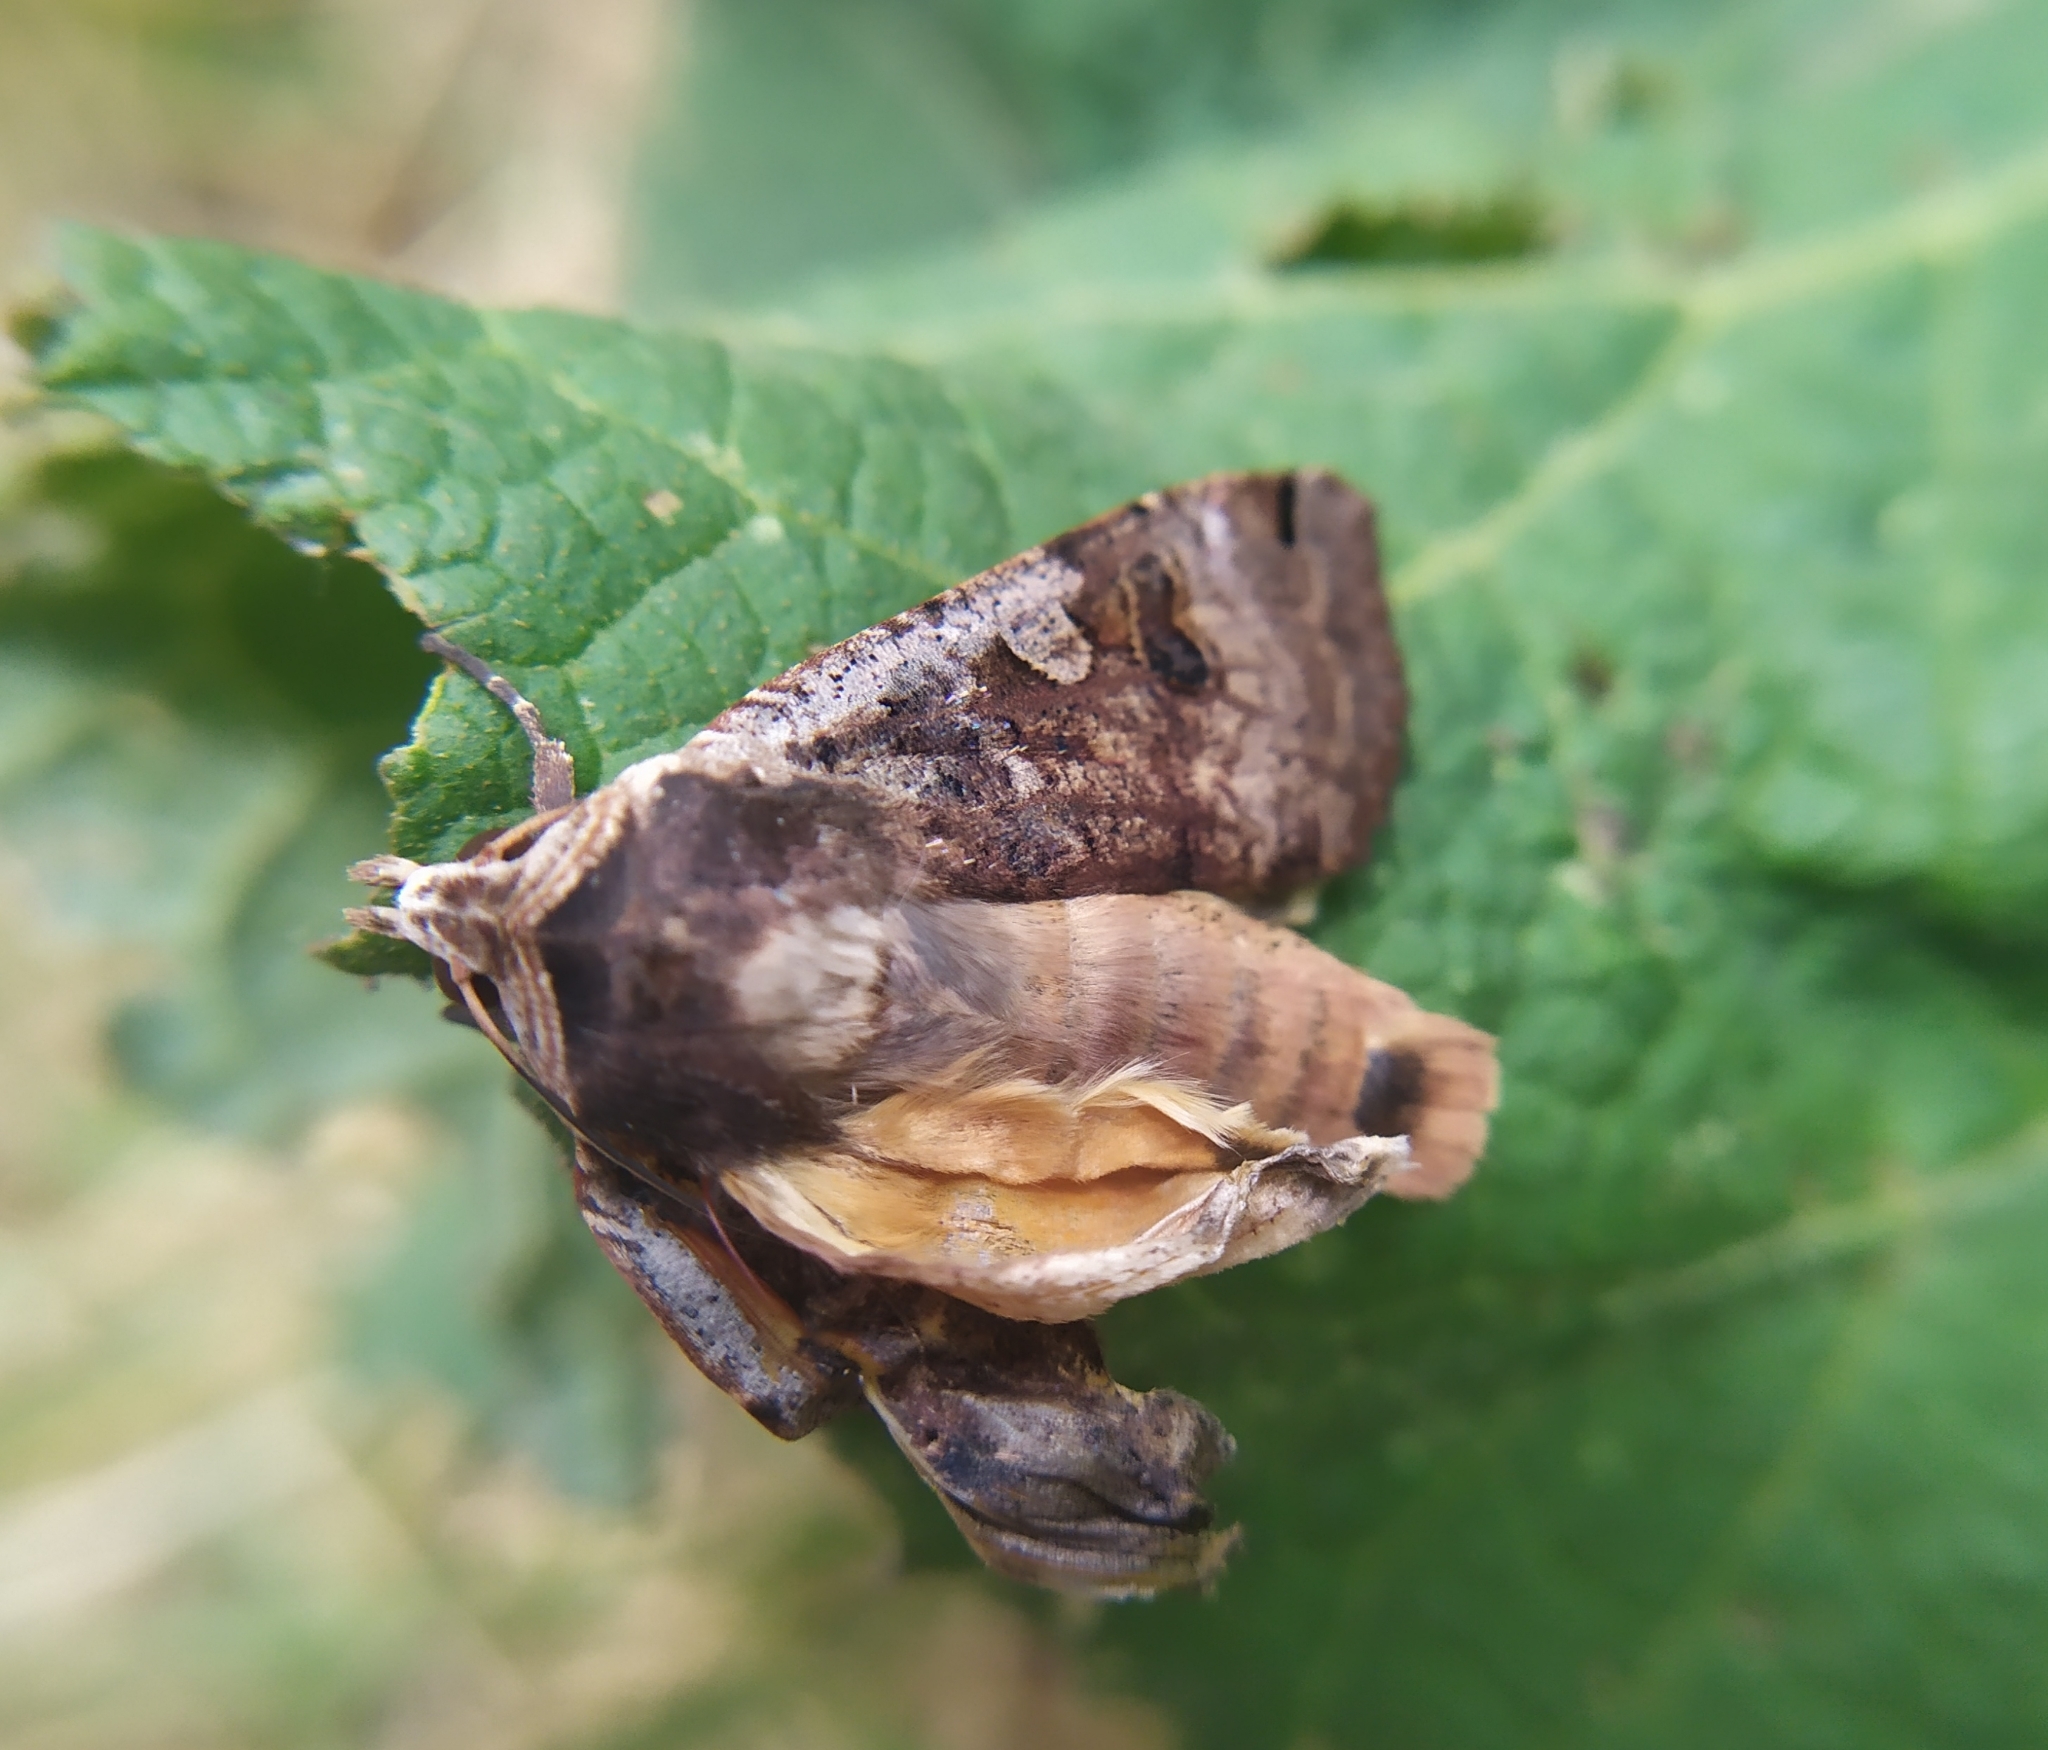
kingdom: Animalia
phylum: Arthropoda
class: Insecta
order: Lepidoptera
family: Noctuidae
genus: Noctua
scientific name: Noctua pronuba
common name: Large yellow underwing
